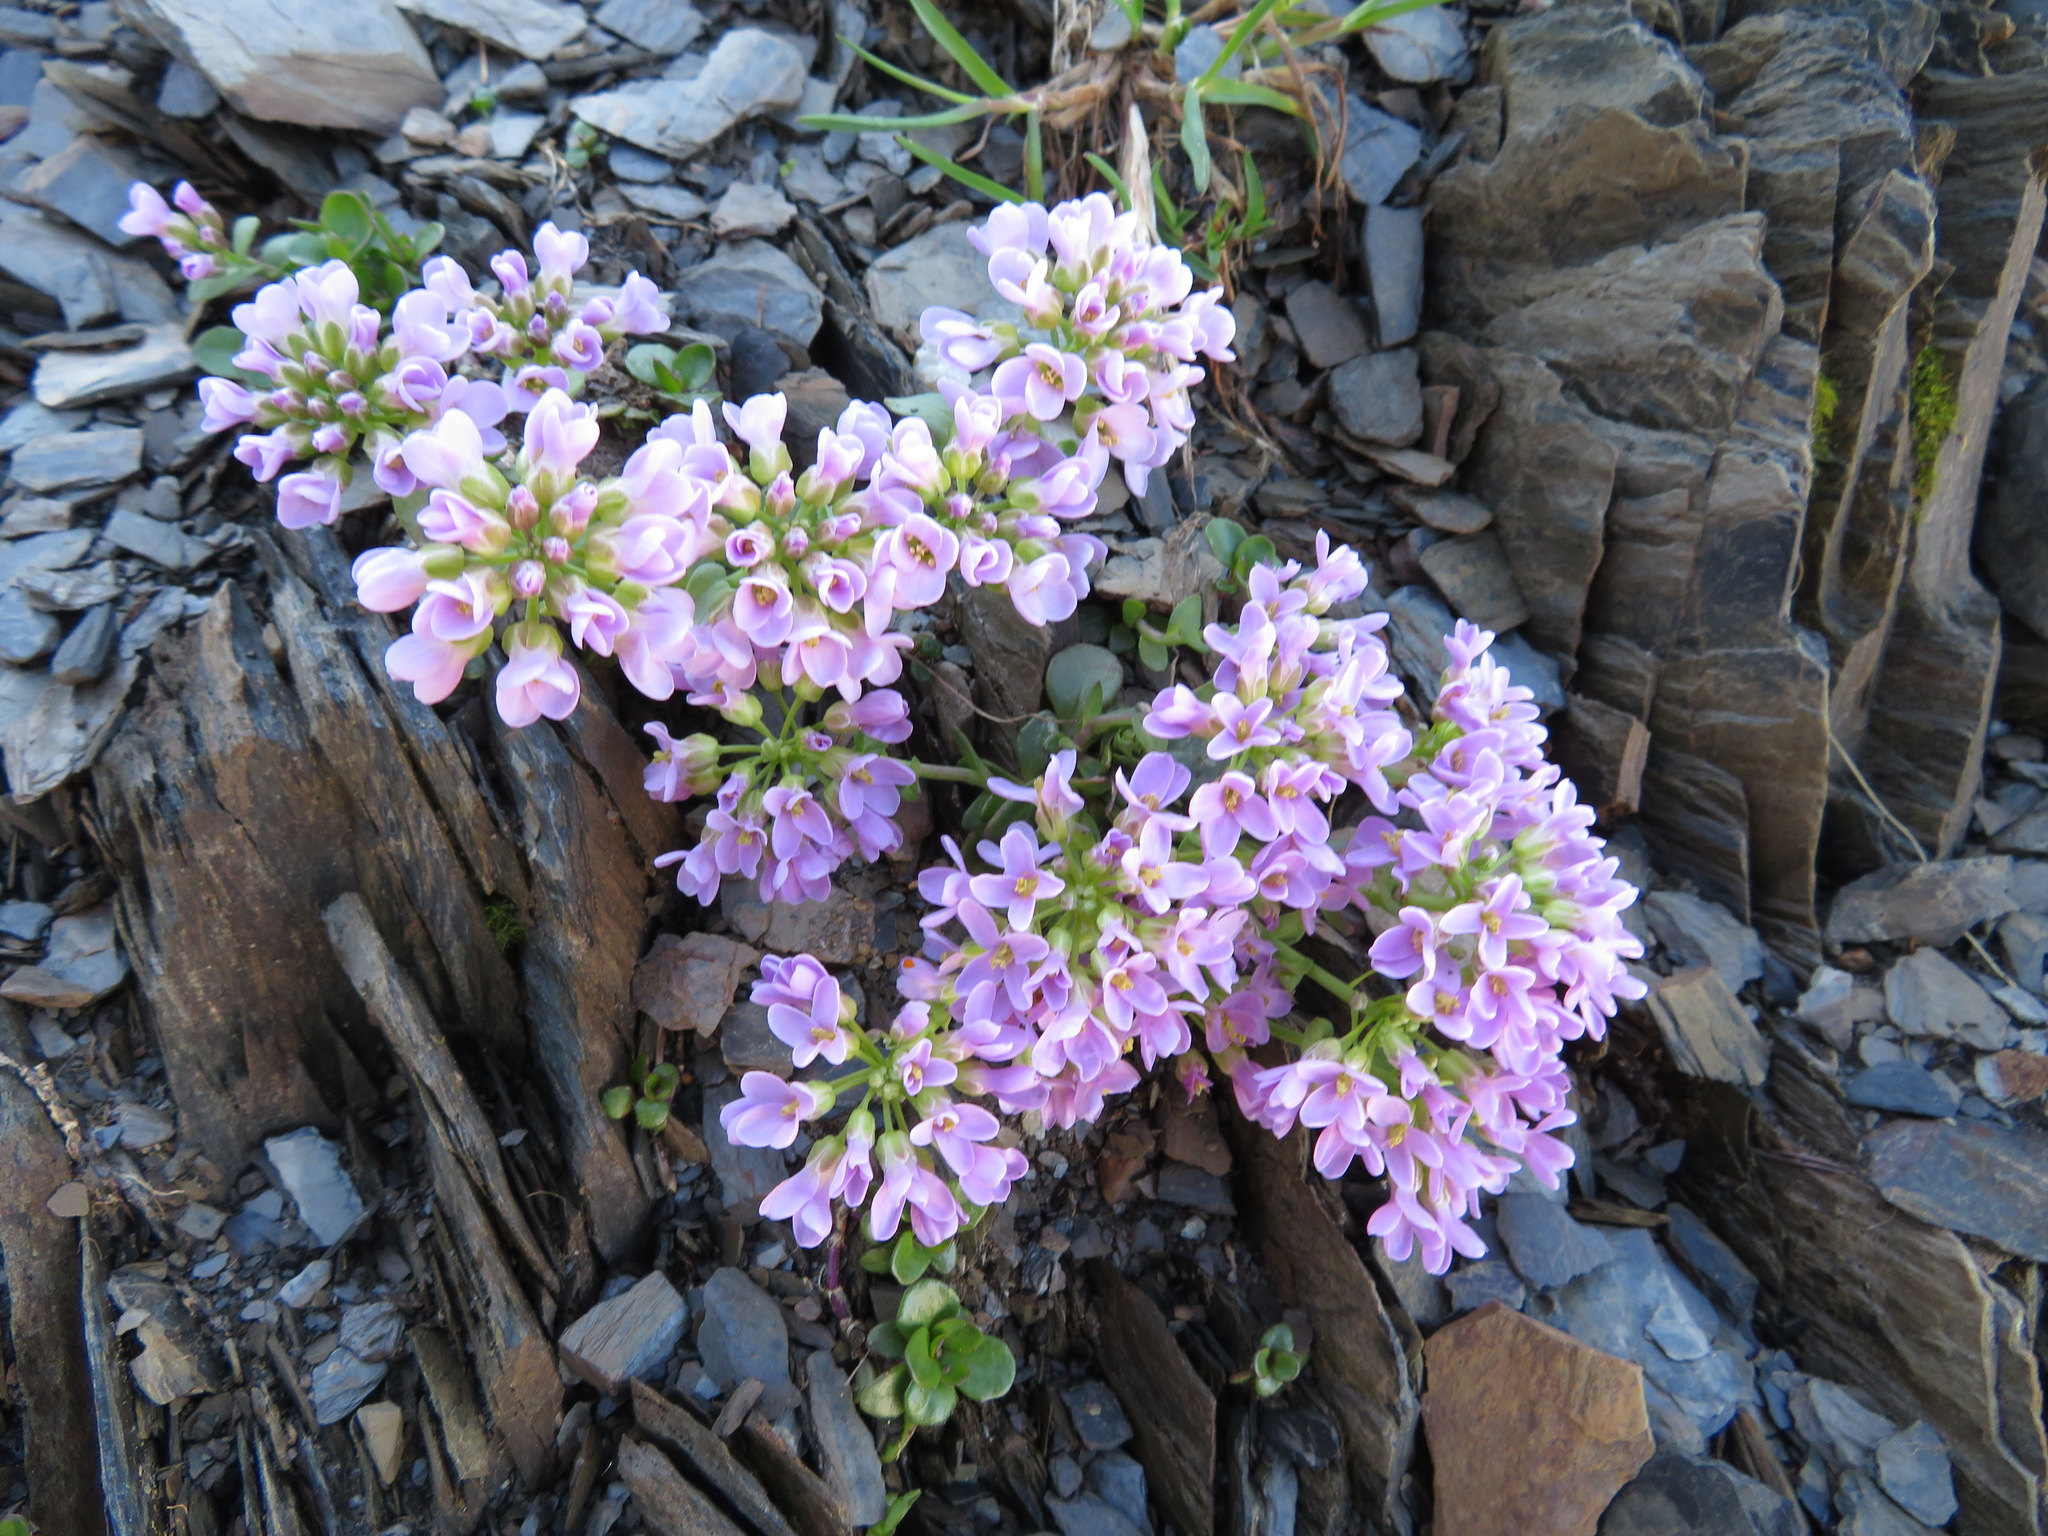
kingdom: Plantae
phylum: Tracheophyta
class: Magnoliopsida
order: Brassicales
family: Brassicaceae
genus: Noccaea
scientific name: Noccaea rotundifolia
